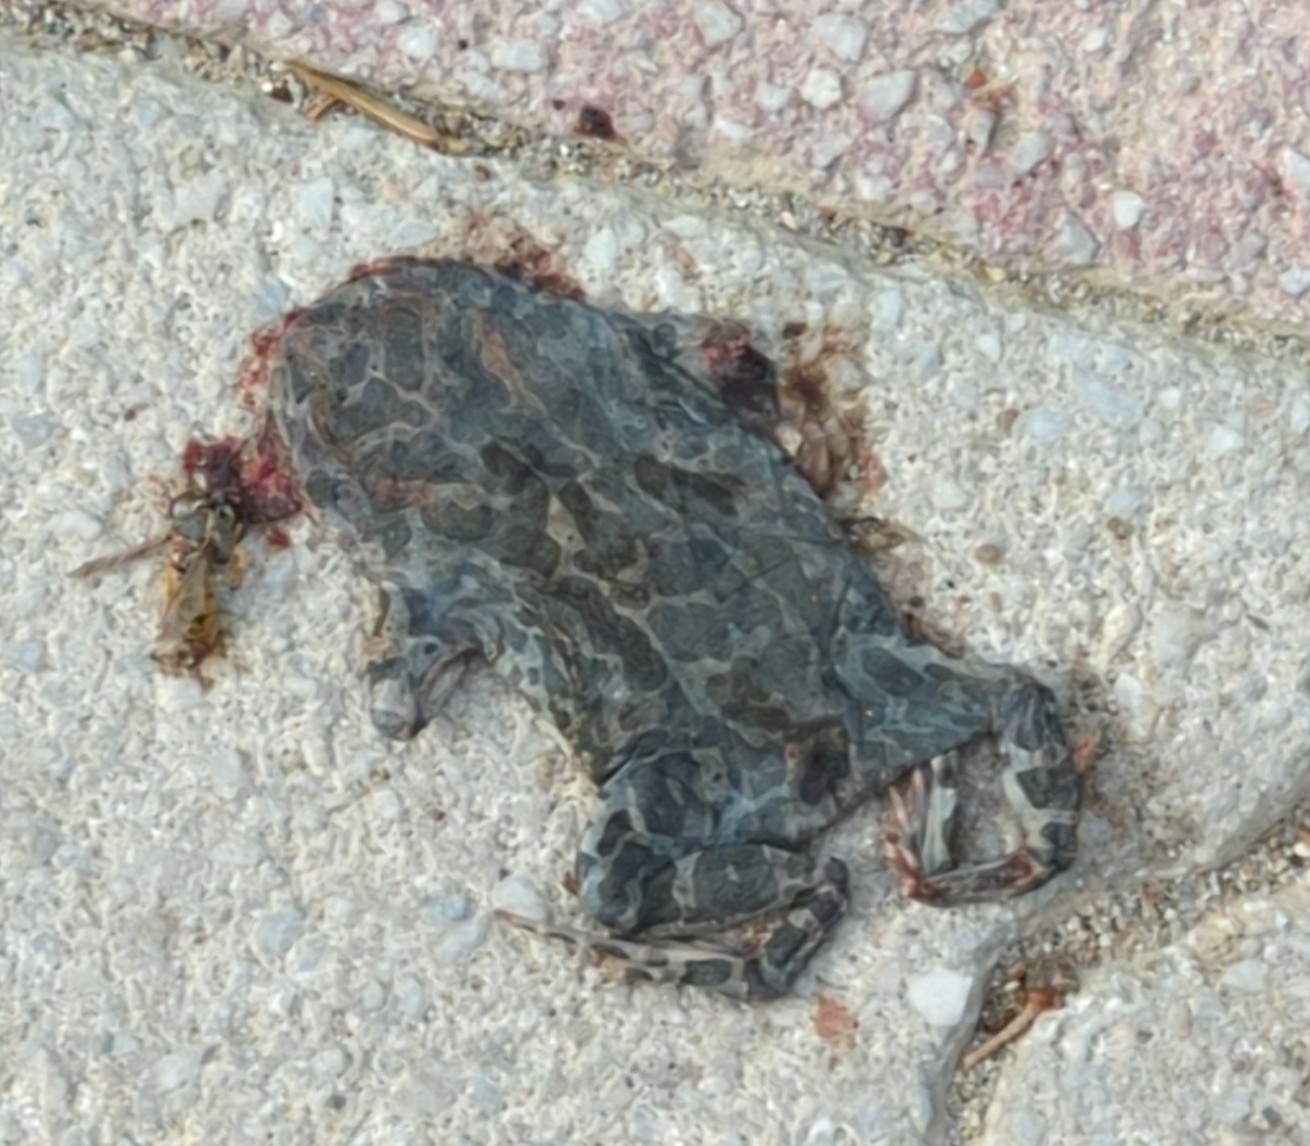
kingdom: Animalia
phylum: Chordata
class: Amphibia
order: Anura
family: Bufonidae
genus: Bufotes
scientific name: Bufotes viridis
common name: European green toad
